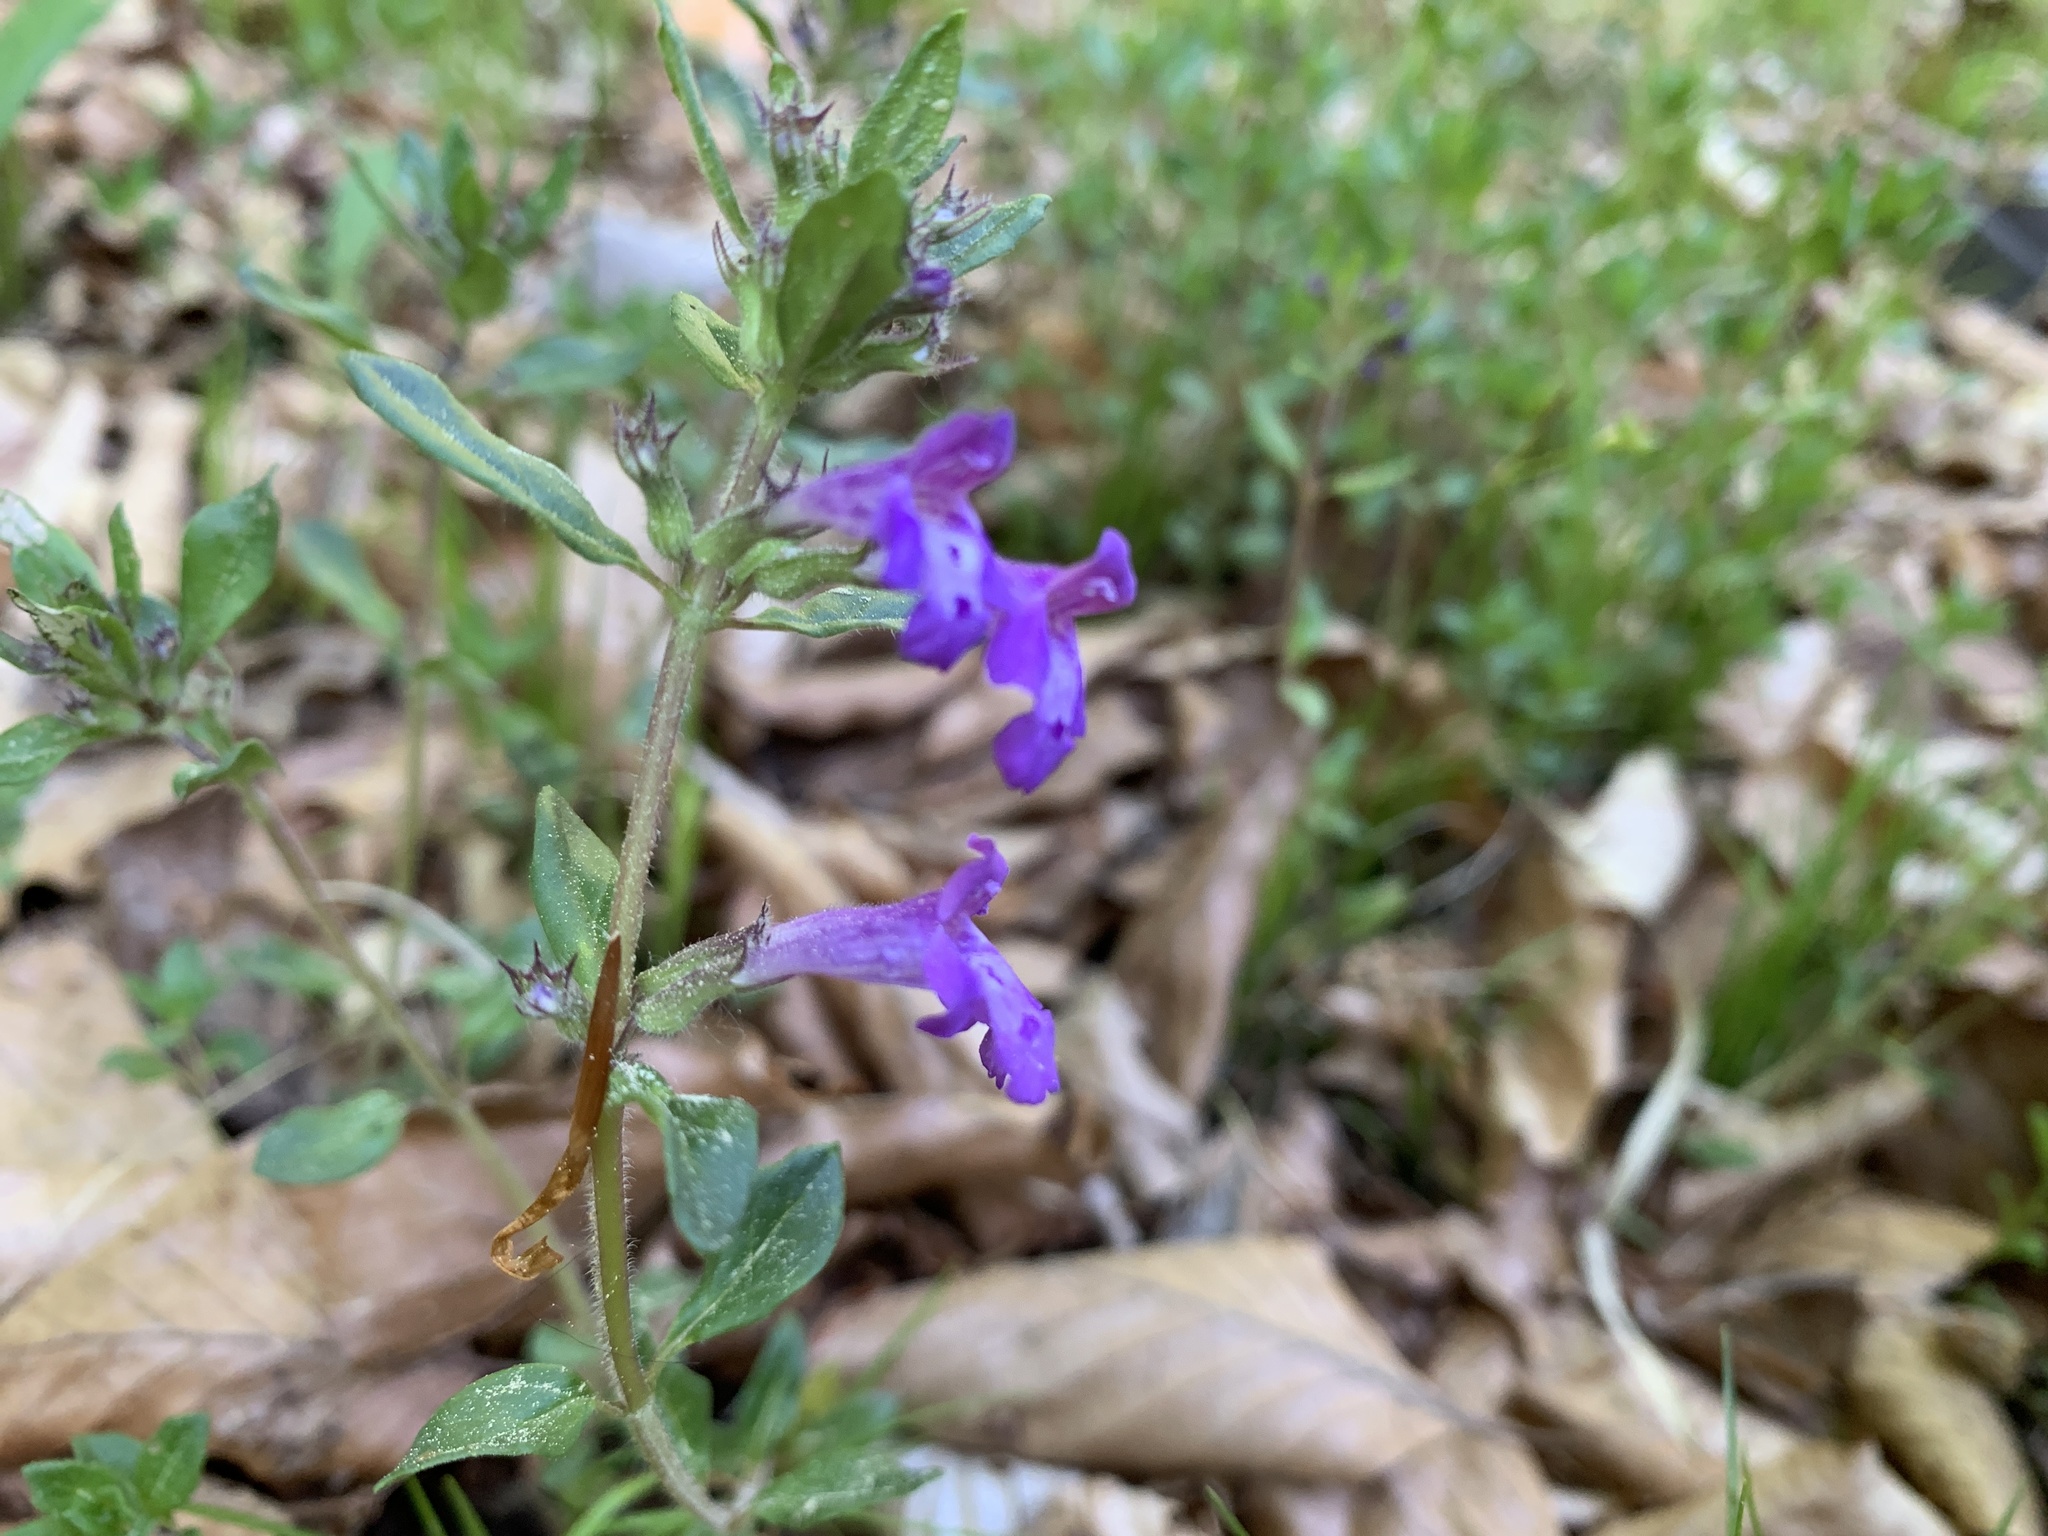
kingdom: Plantae
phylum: Tracheophyta
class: Magnoliopsida
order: Lamiales
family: Lamiaceae
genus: Clinopodium
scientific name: Clinopodium alpinum
